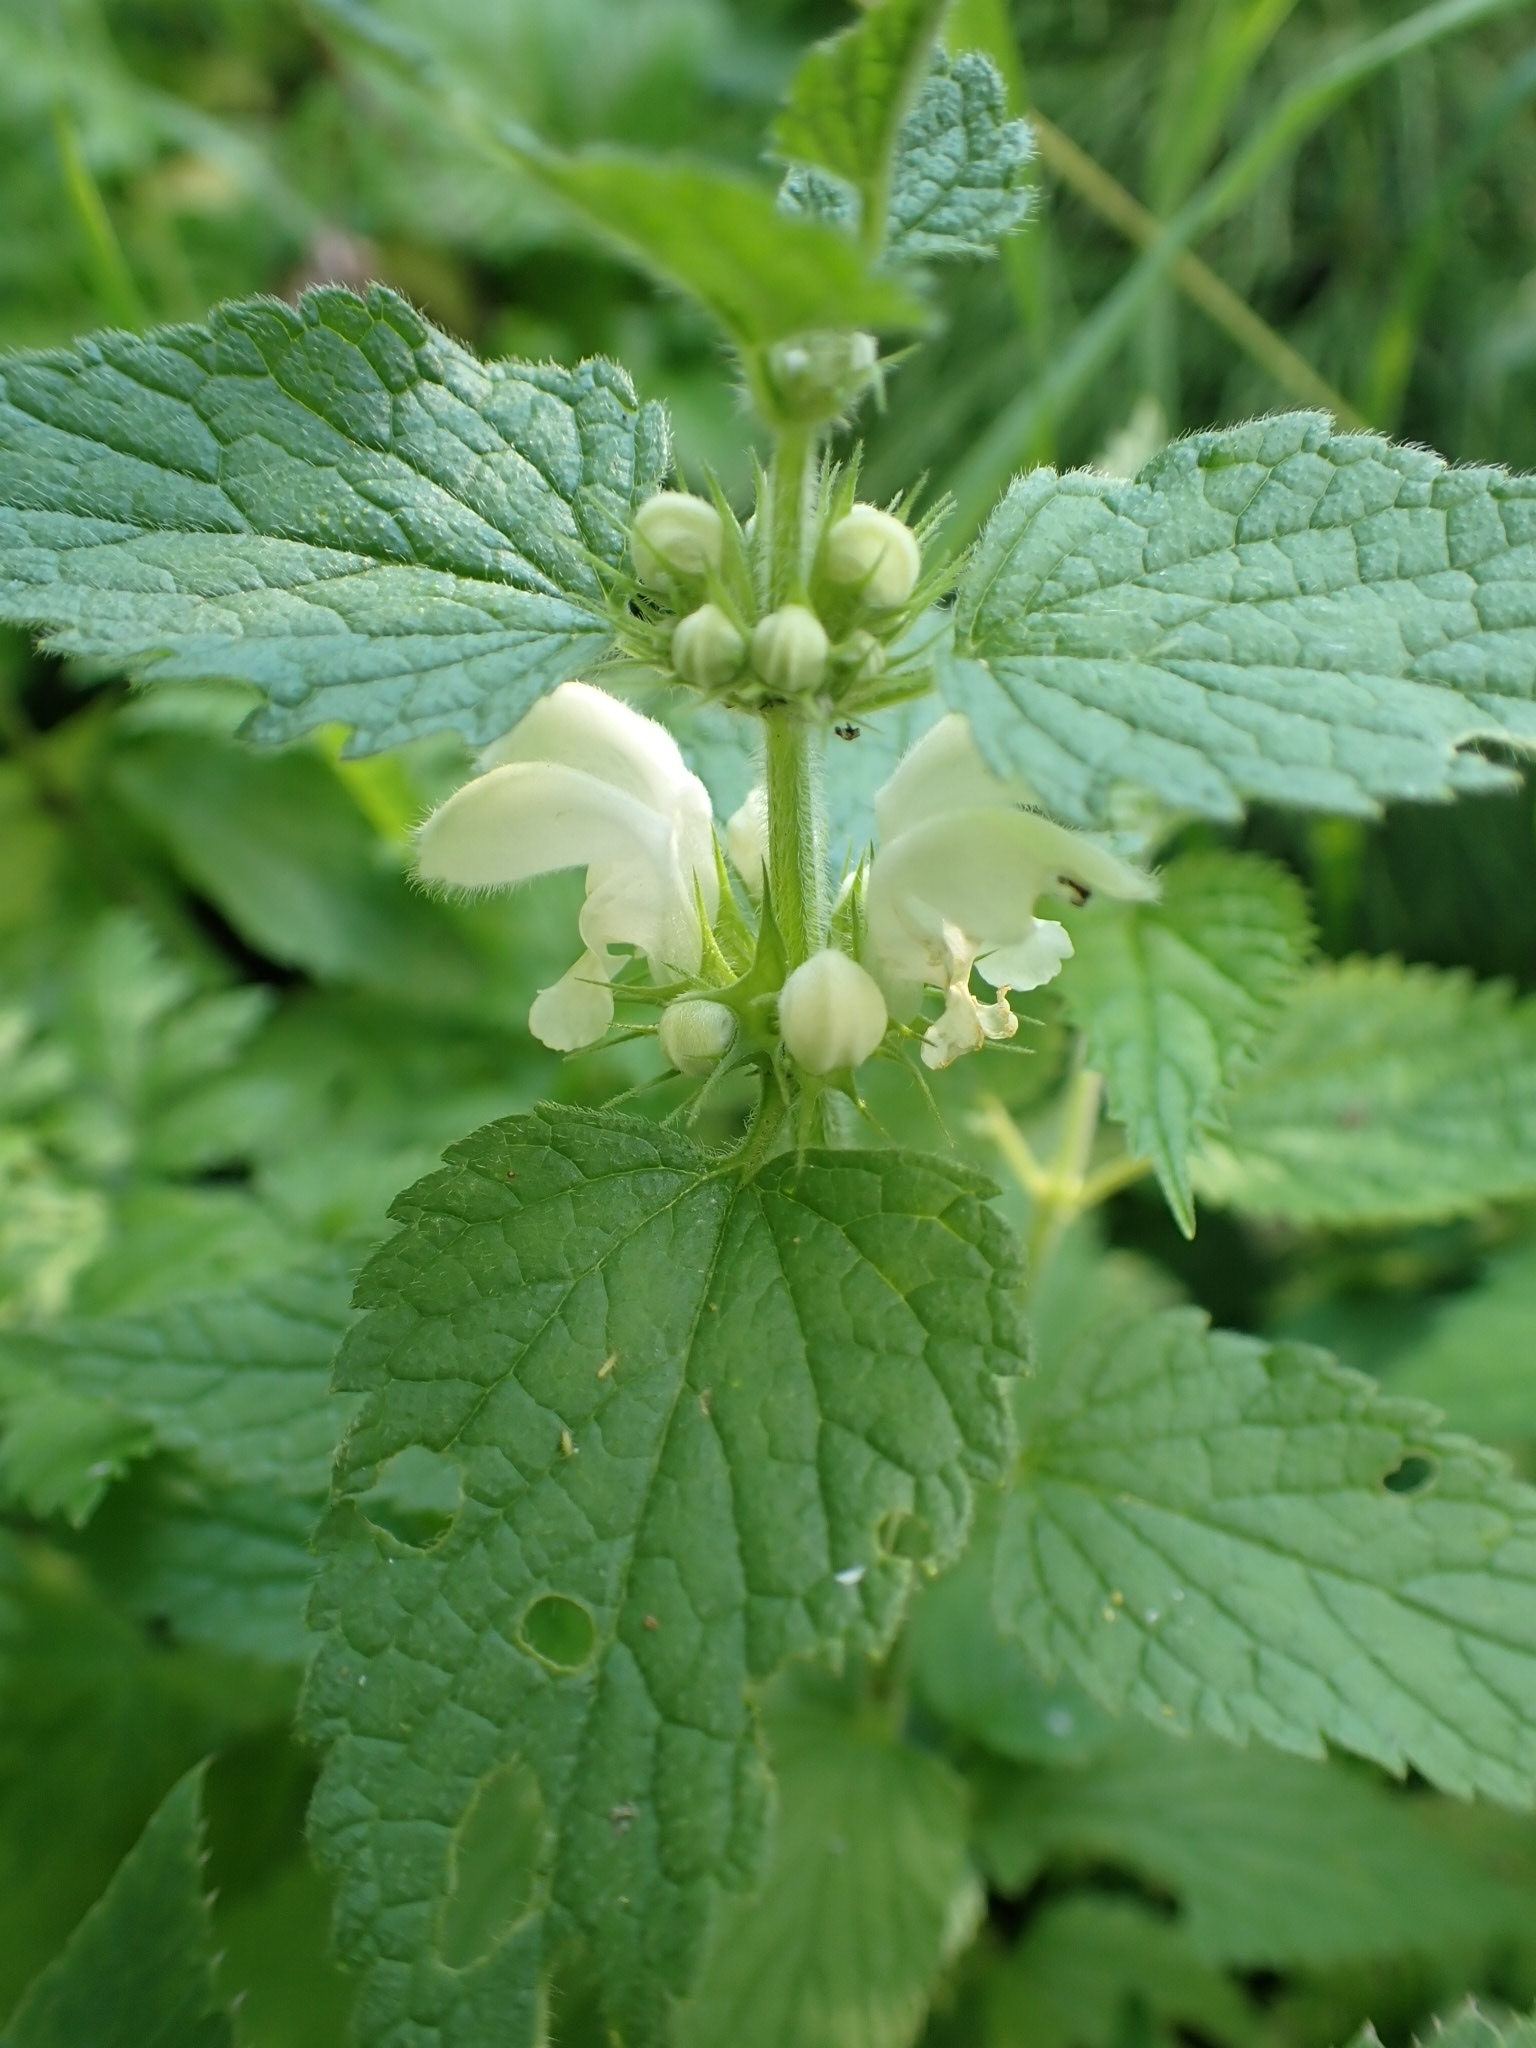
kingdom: Plantae
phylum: Tracheophyta
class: Magnoliopsida
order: Lamiales
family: Lamiaceae
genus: Lamium
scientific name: Lamium album
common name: White dead-nettle
